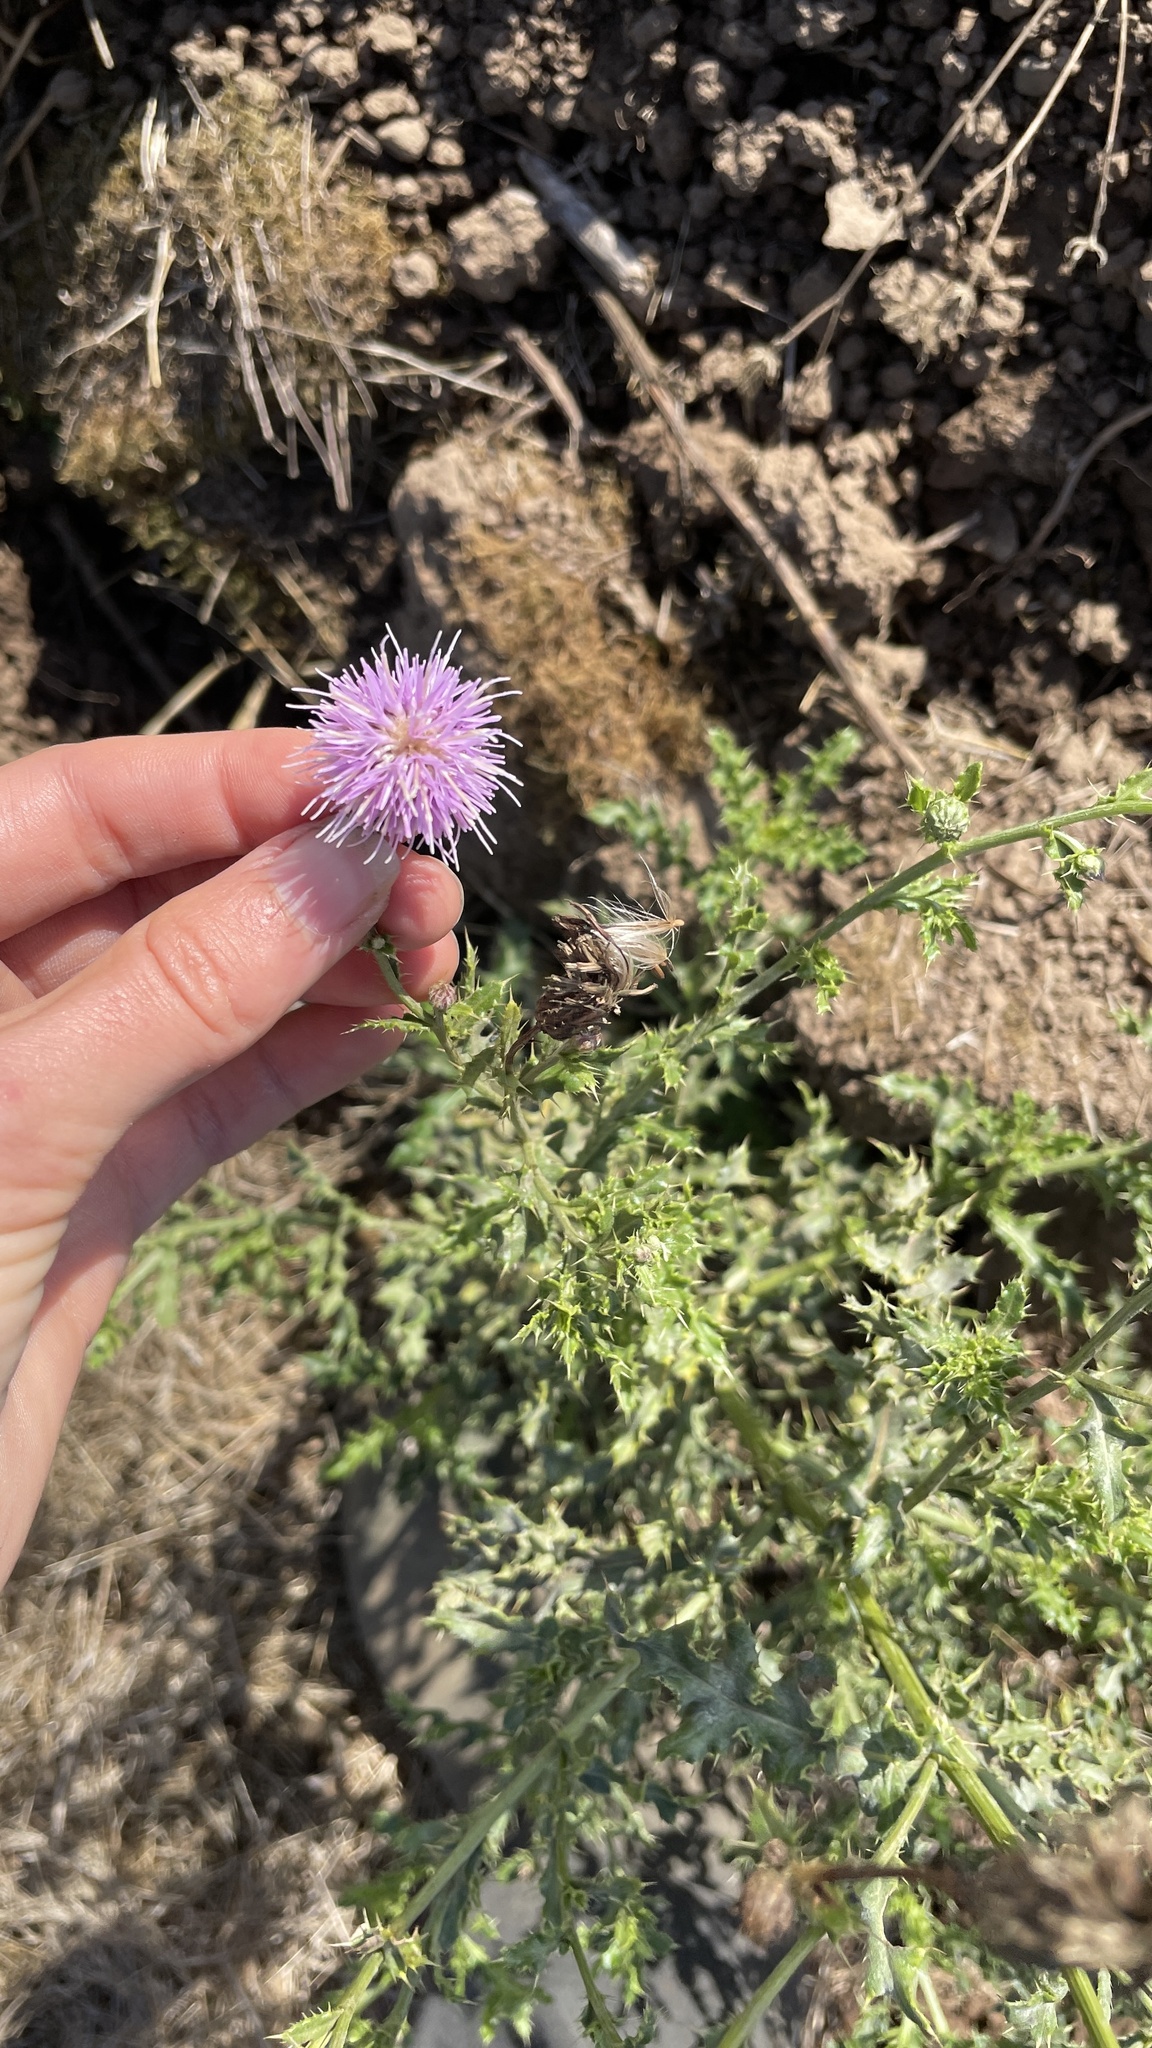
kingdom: Plantae
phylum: Tracheophyta
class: Magnoliopsida
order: Asterales
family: Asteraceae
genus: Cirsium
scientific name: Cirsium arvense
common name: Creeping thistle
